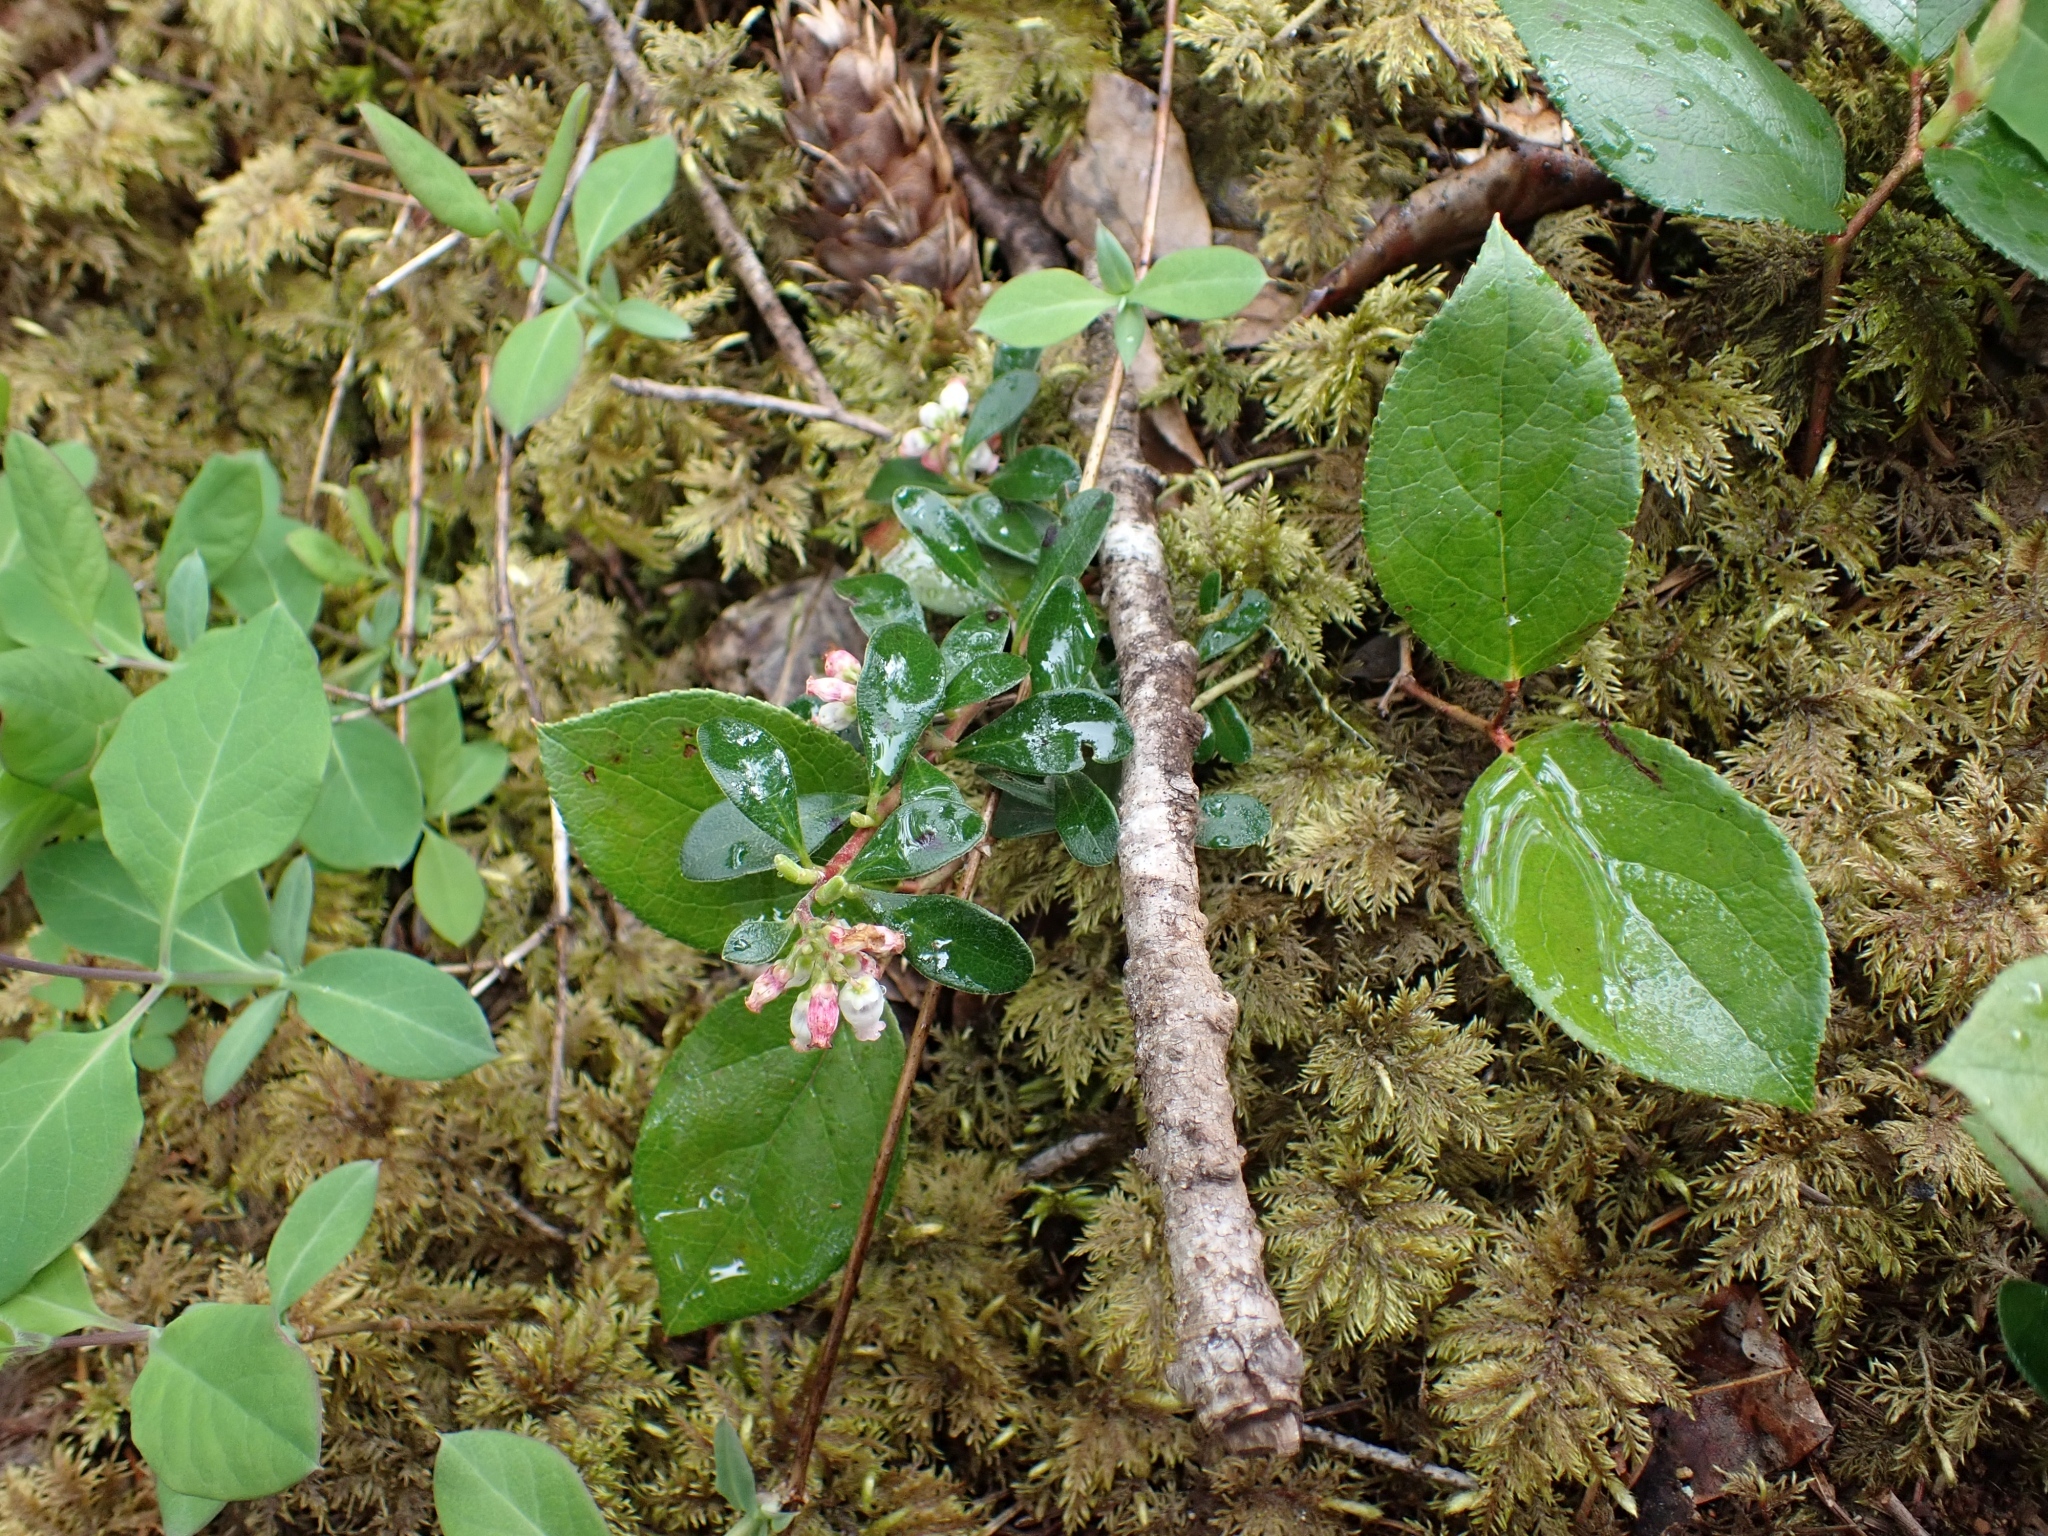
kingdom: Plantae
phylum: Tracheophyta
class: Magnoliopsida
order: Ericales
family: Ericaceae
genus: Arctostaphylos
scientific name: Arctostaphylos uva-ursi
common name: Bearberry
